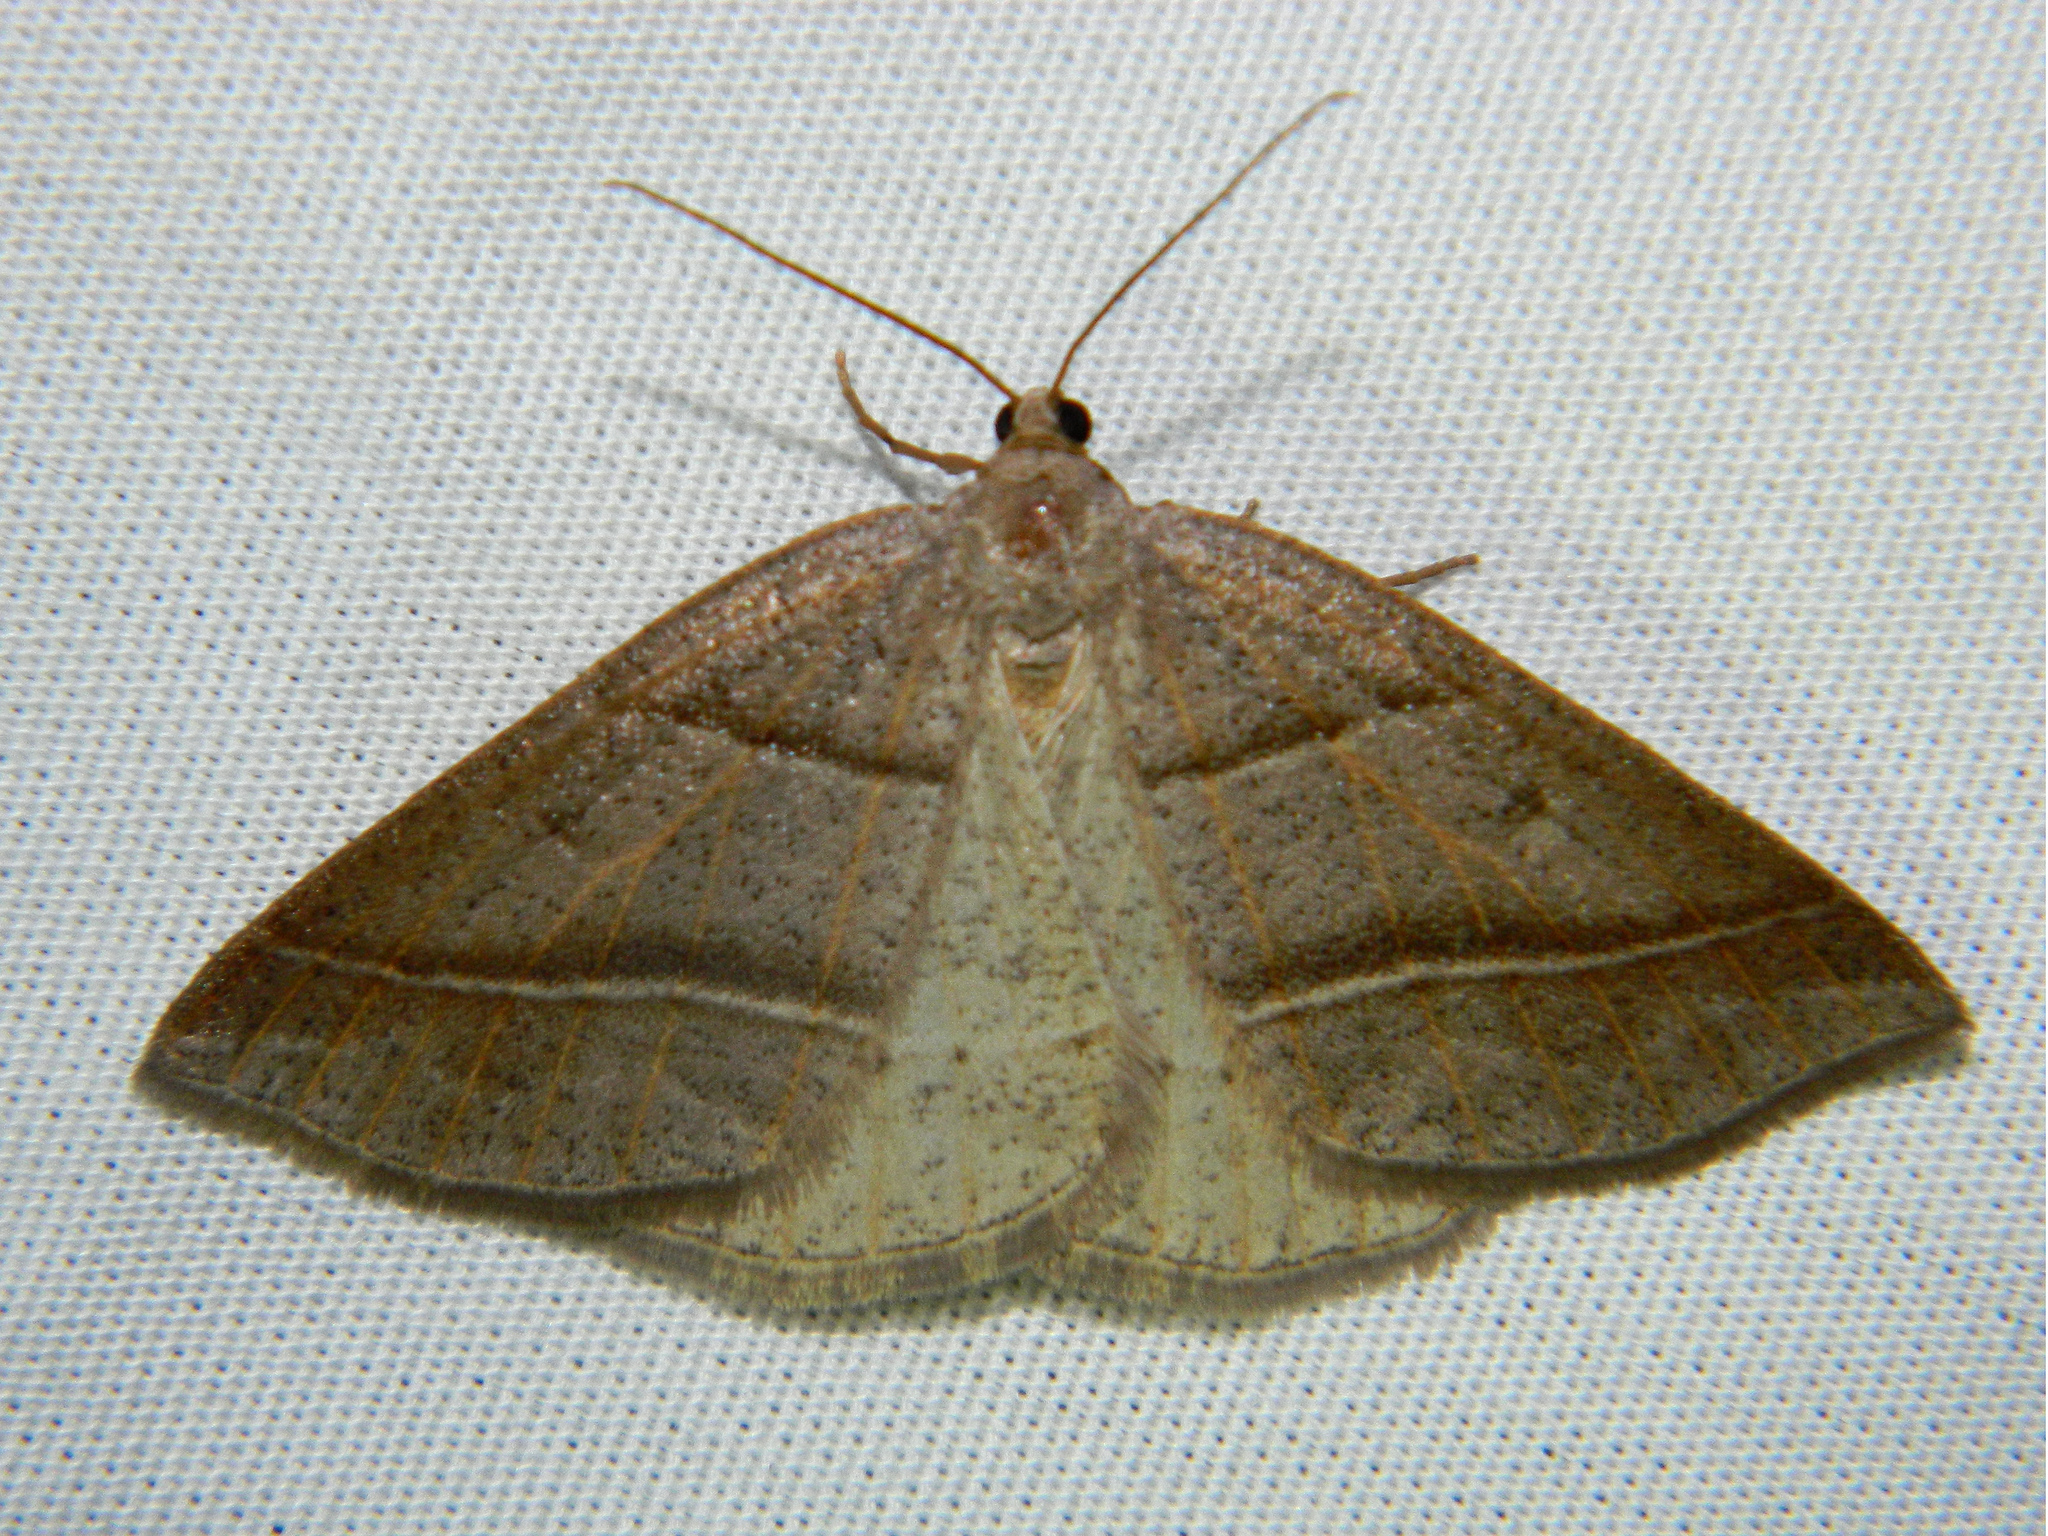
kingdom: Animalia
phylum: Arthropoda
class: Insecta
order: Lepidoptera
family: Pterophoridae
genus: Pterophorus
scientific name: Pterophorus Petrophora subaequaria
